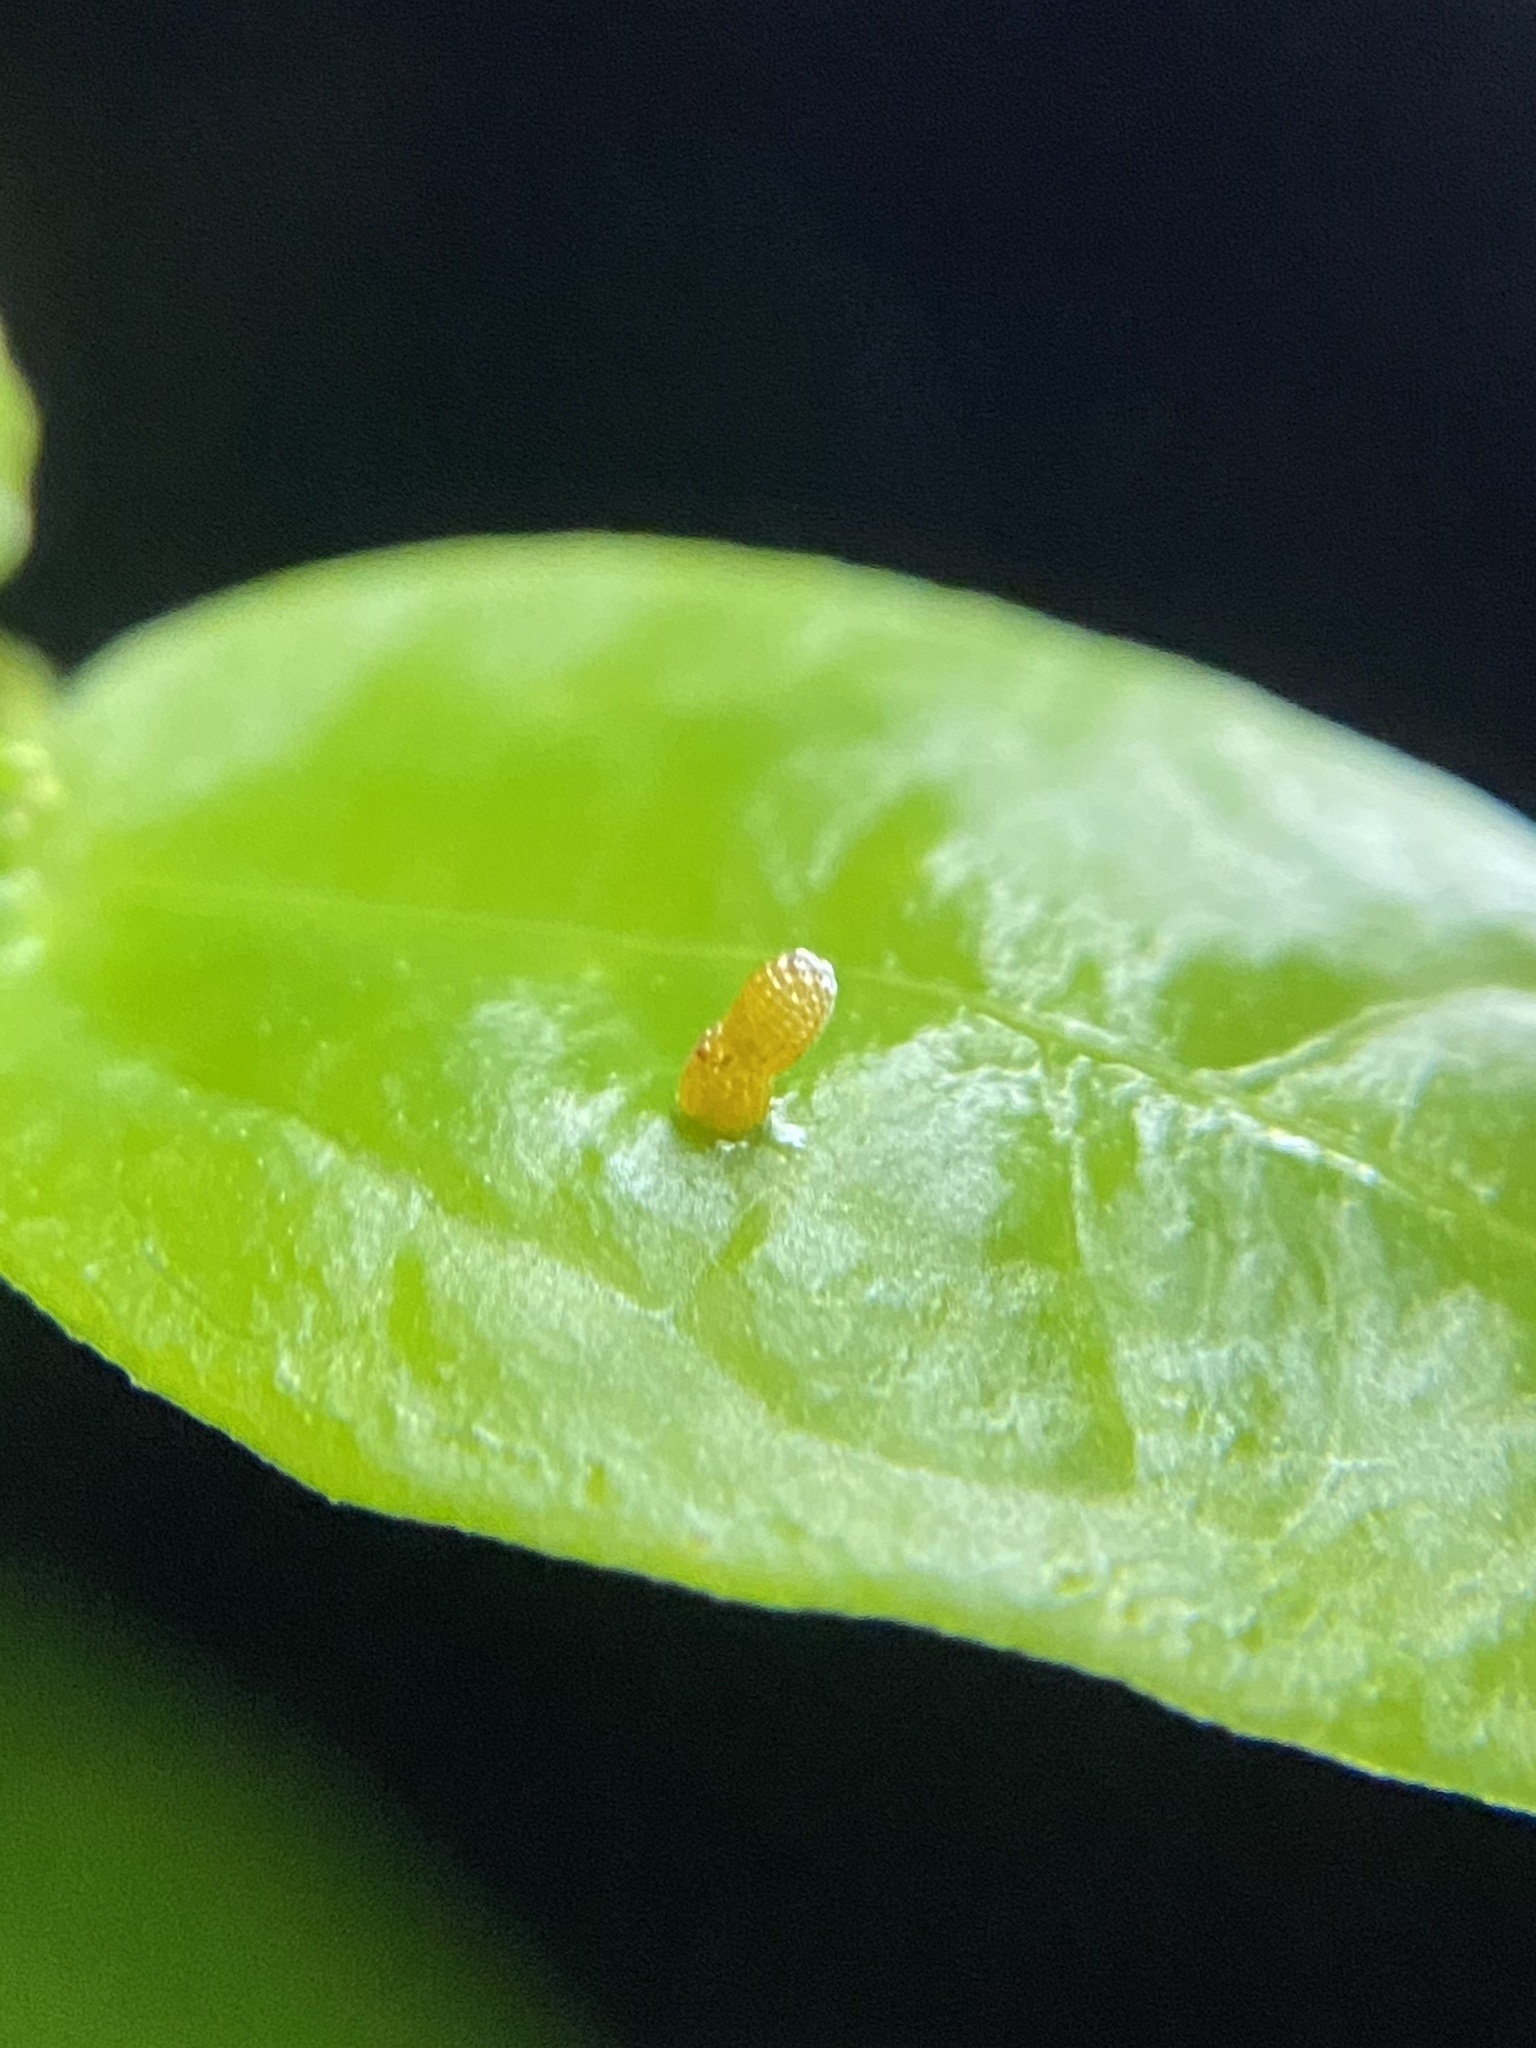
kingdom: Animalia
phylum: Arthropoda
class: Insecta
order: Lepidoptera
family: Nymphalidae
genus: Heliconius
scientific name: Heliconius charithonia
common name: Zebra long wing
